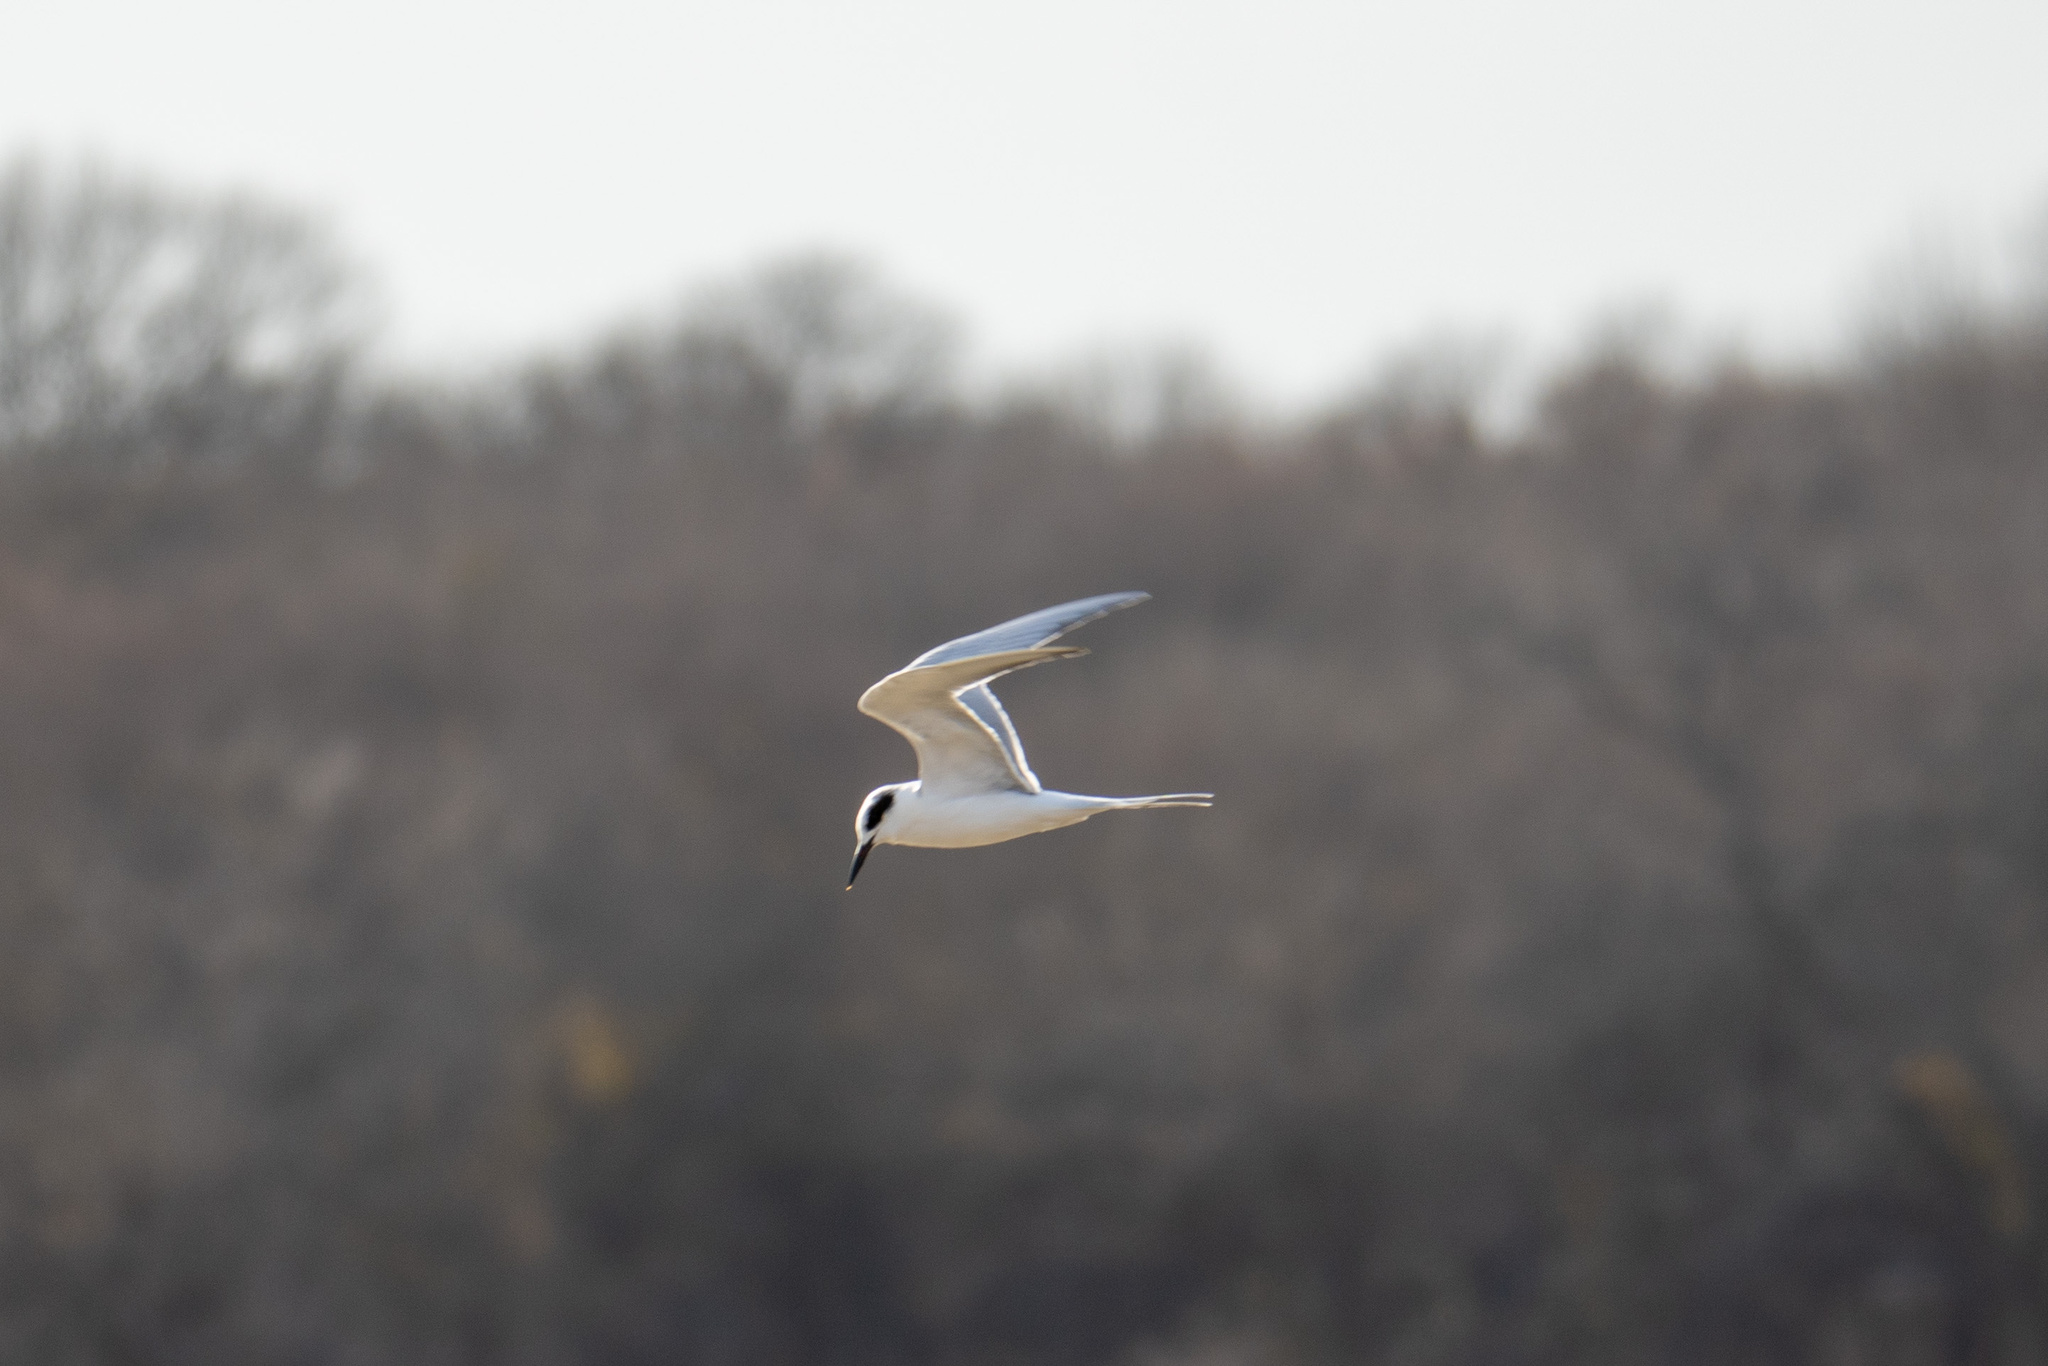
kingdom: Animalia
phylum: Chordata
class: Aves
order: Charadriiformes
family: Laridae
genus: Sterna
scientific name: Sterna forsteri
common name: Forster's tern
